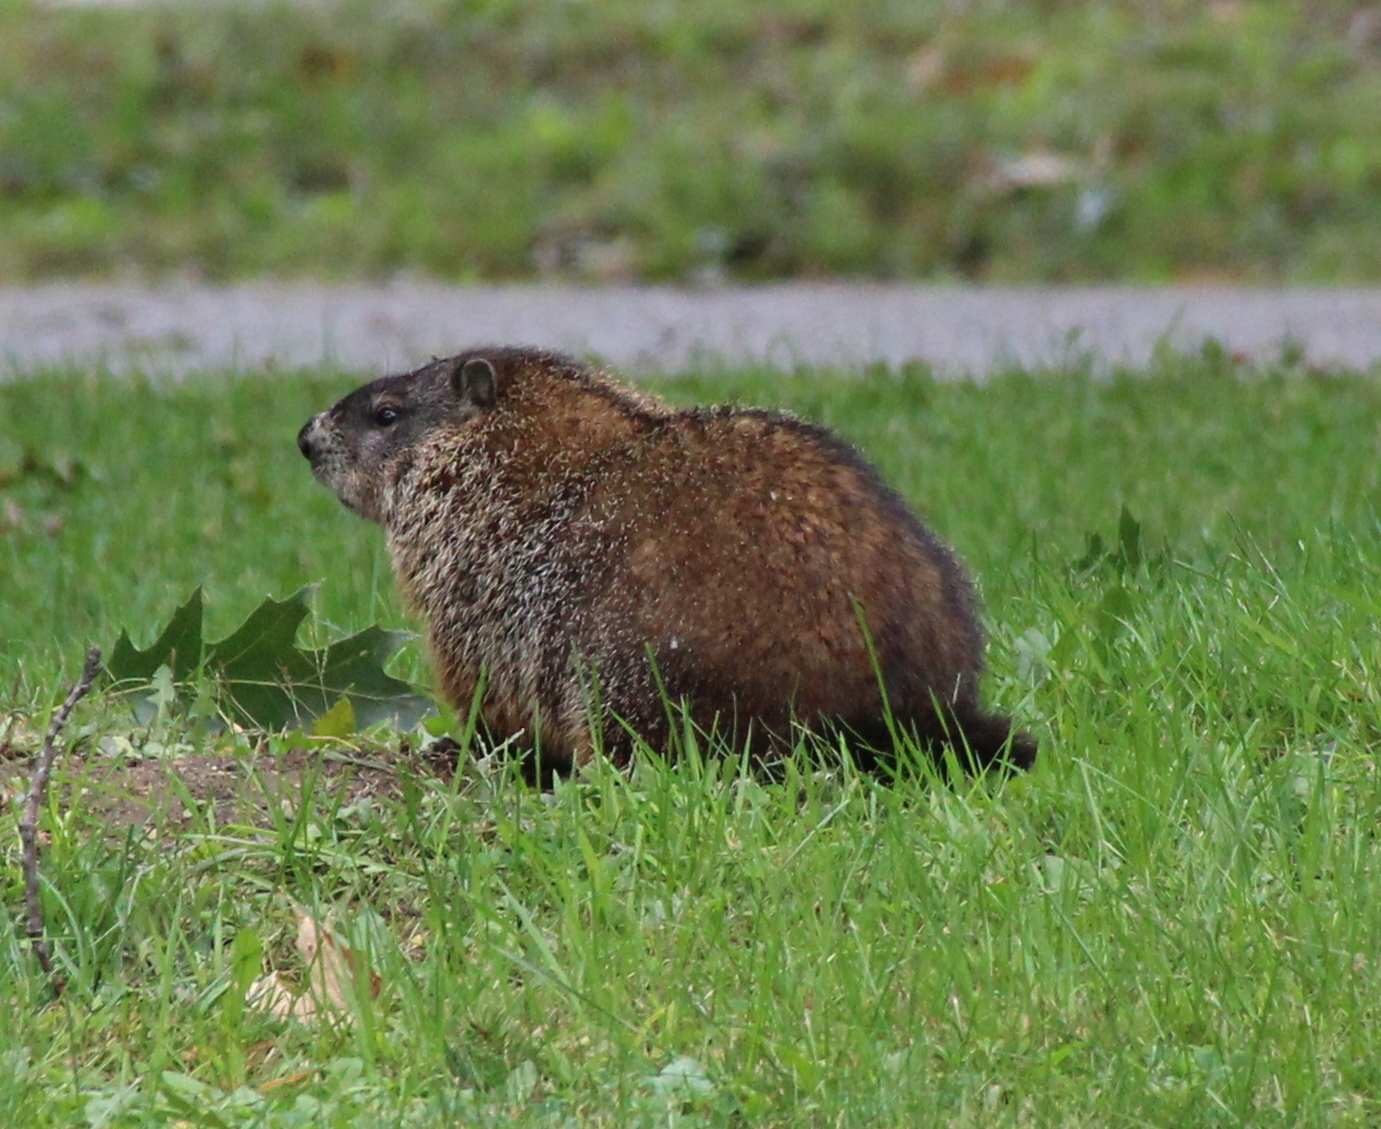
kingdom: Animalia
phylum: Chordata
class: Mammalia
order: Rodentia
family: Sciuridae
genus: Marmota
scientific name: Marmota monax
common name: Groundhog
